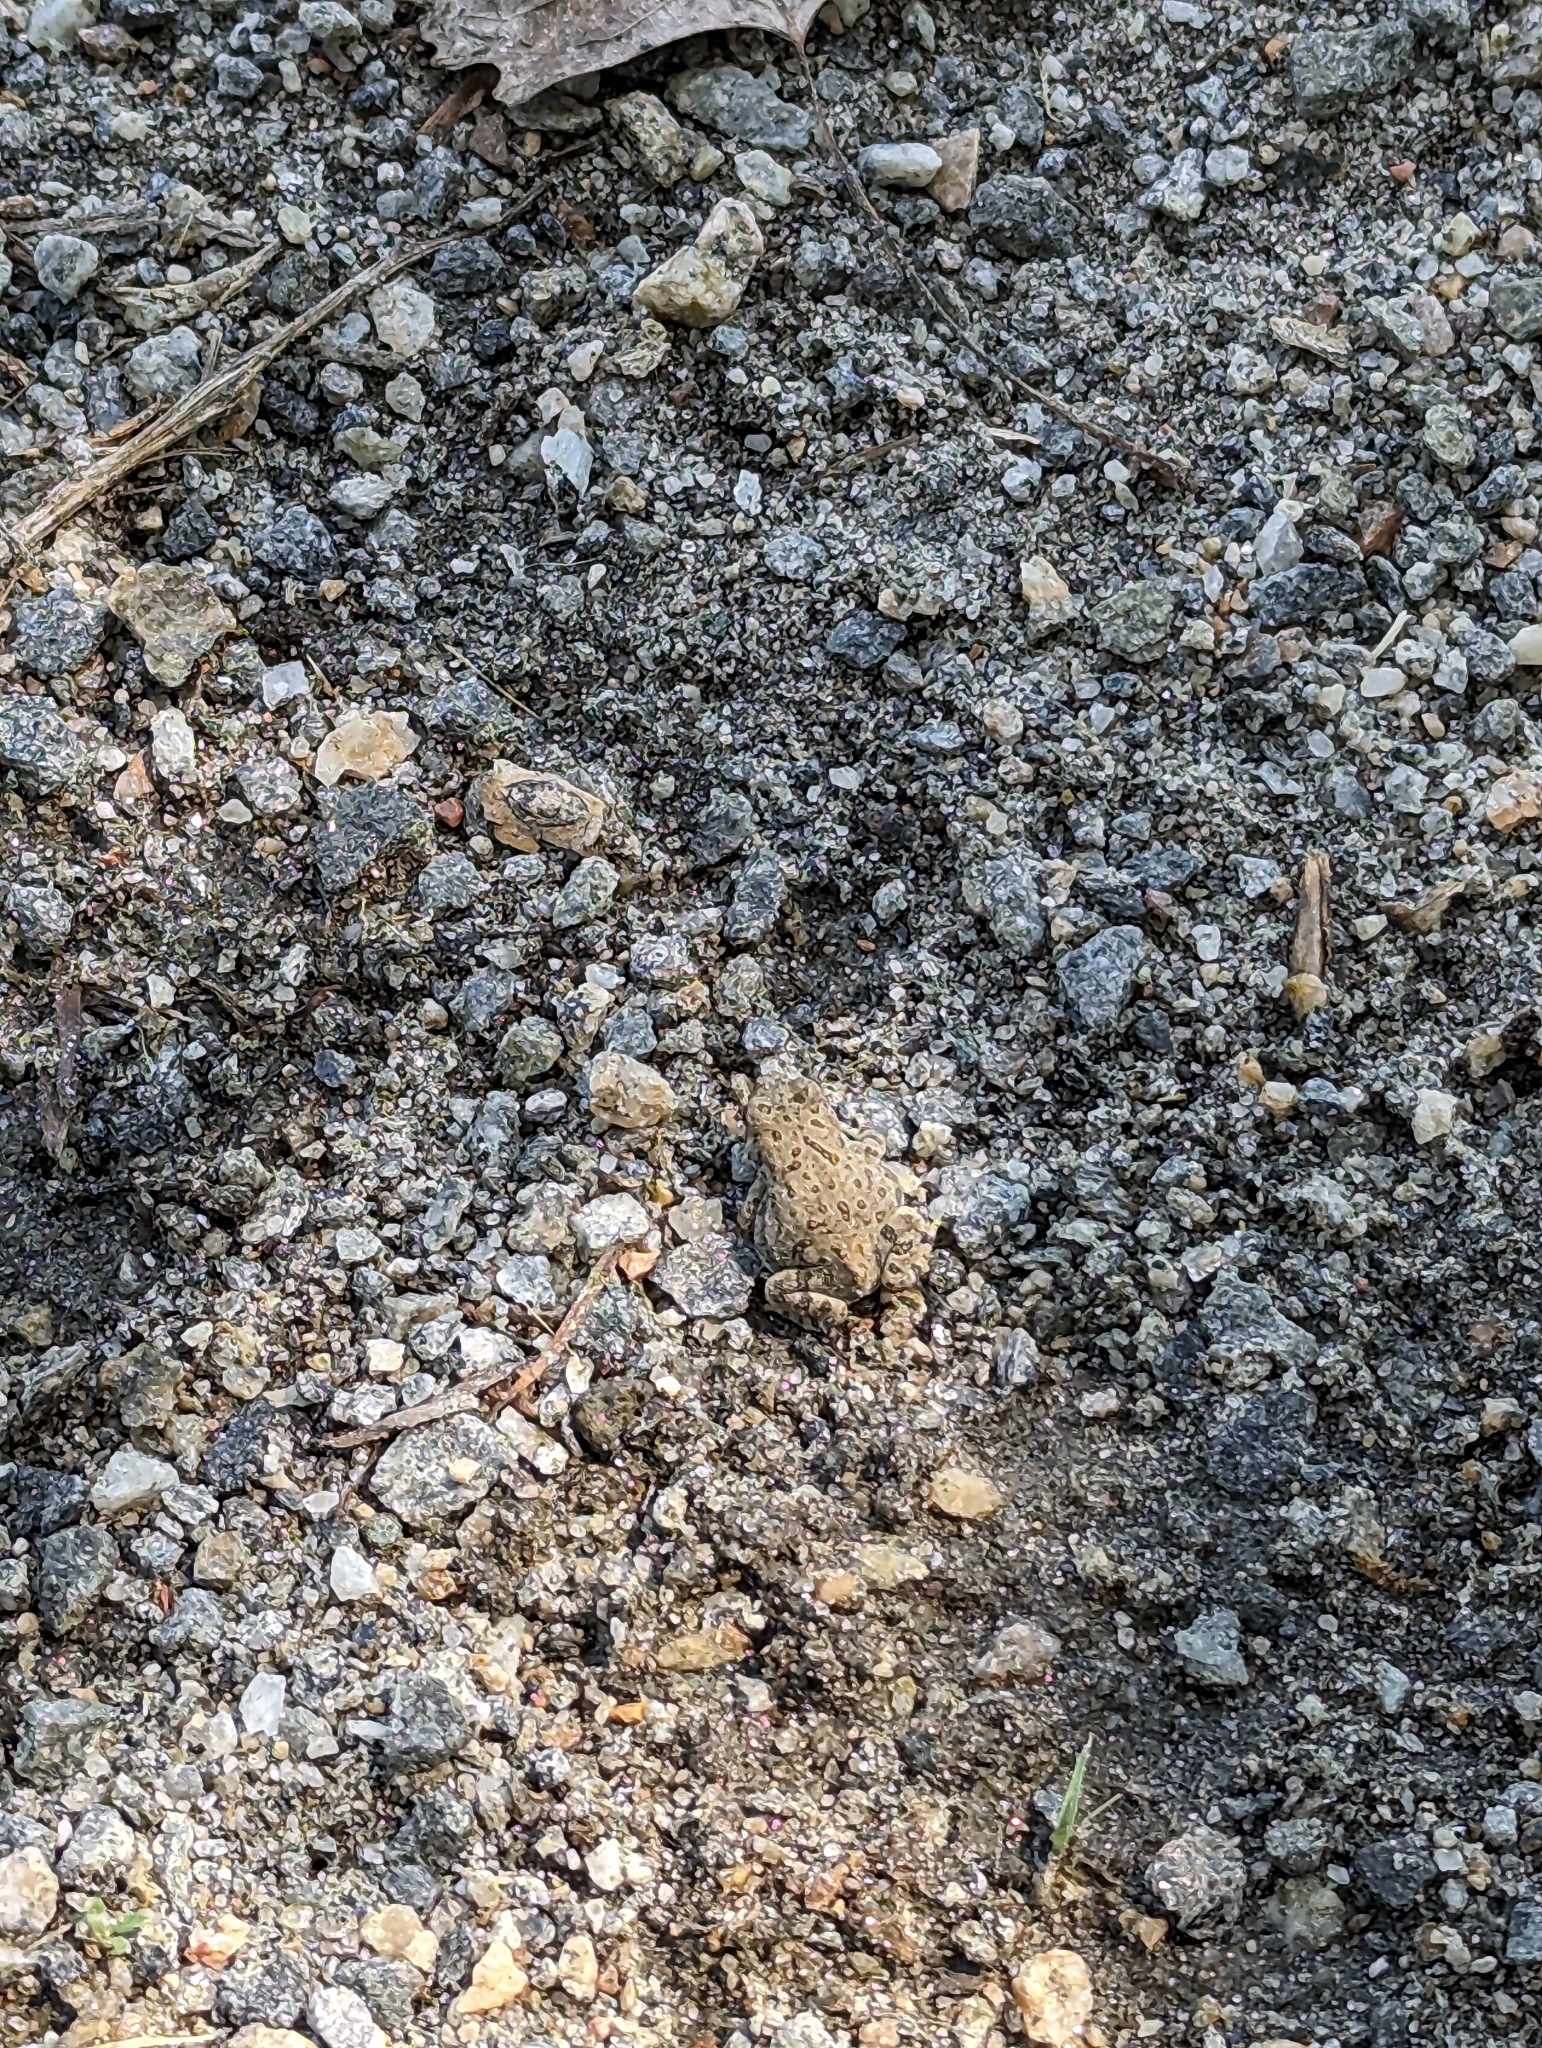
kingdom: Animalia
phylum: Chordata
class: Amphibia
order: Anura
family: Bufonidae
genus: Anaxyrus
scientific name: Anaxyrus woodhousii
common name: Woodhouse's toad
